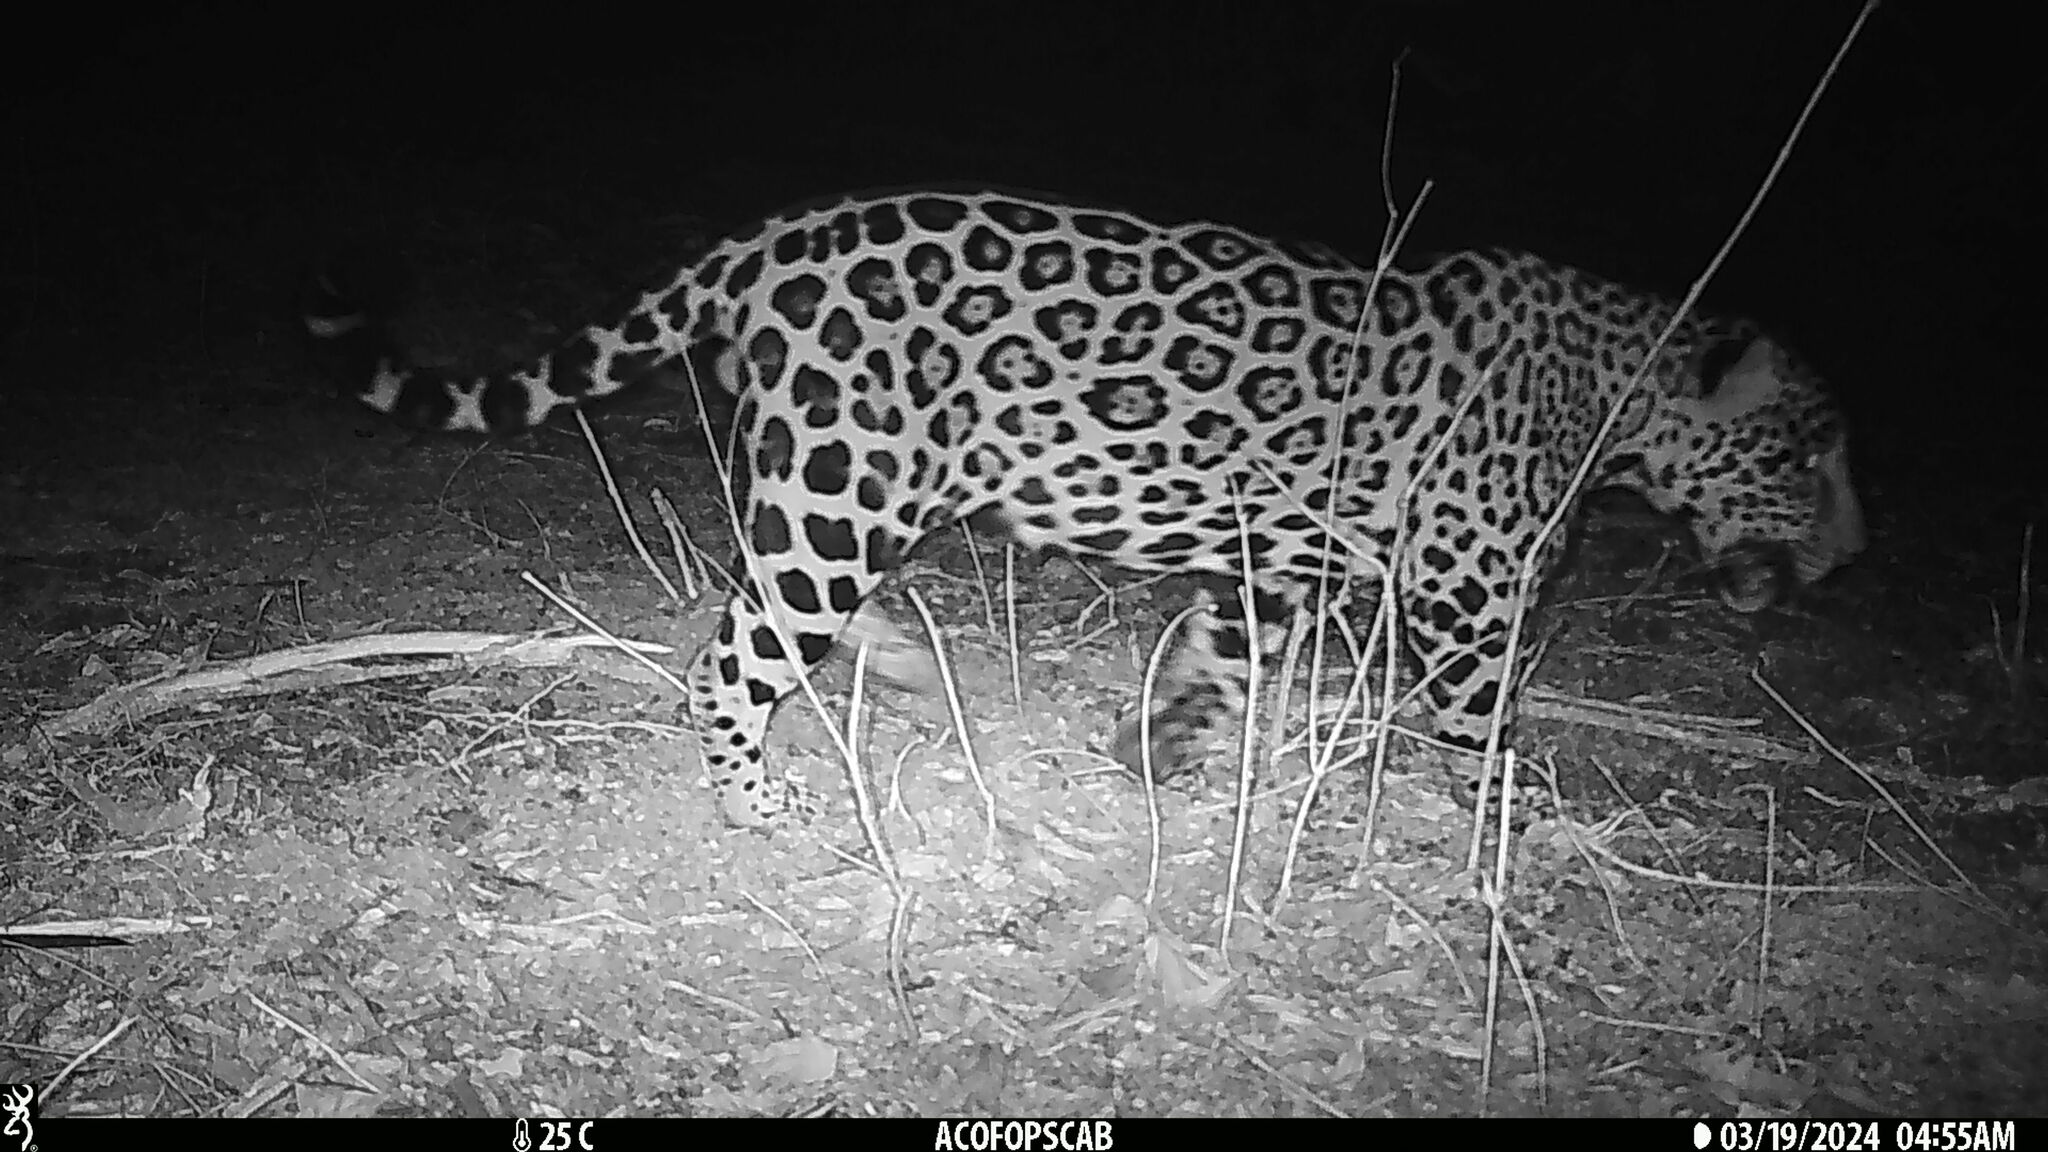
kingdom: Animalia
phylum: Chordata
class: Mammalia
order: Carnivora
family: Felidae
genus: Panthera
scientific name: Panthera onca
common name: Jaguar
